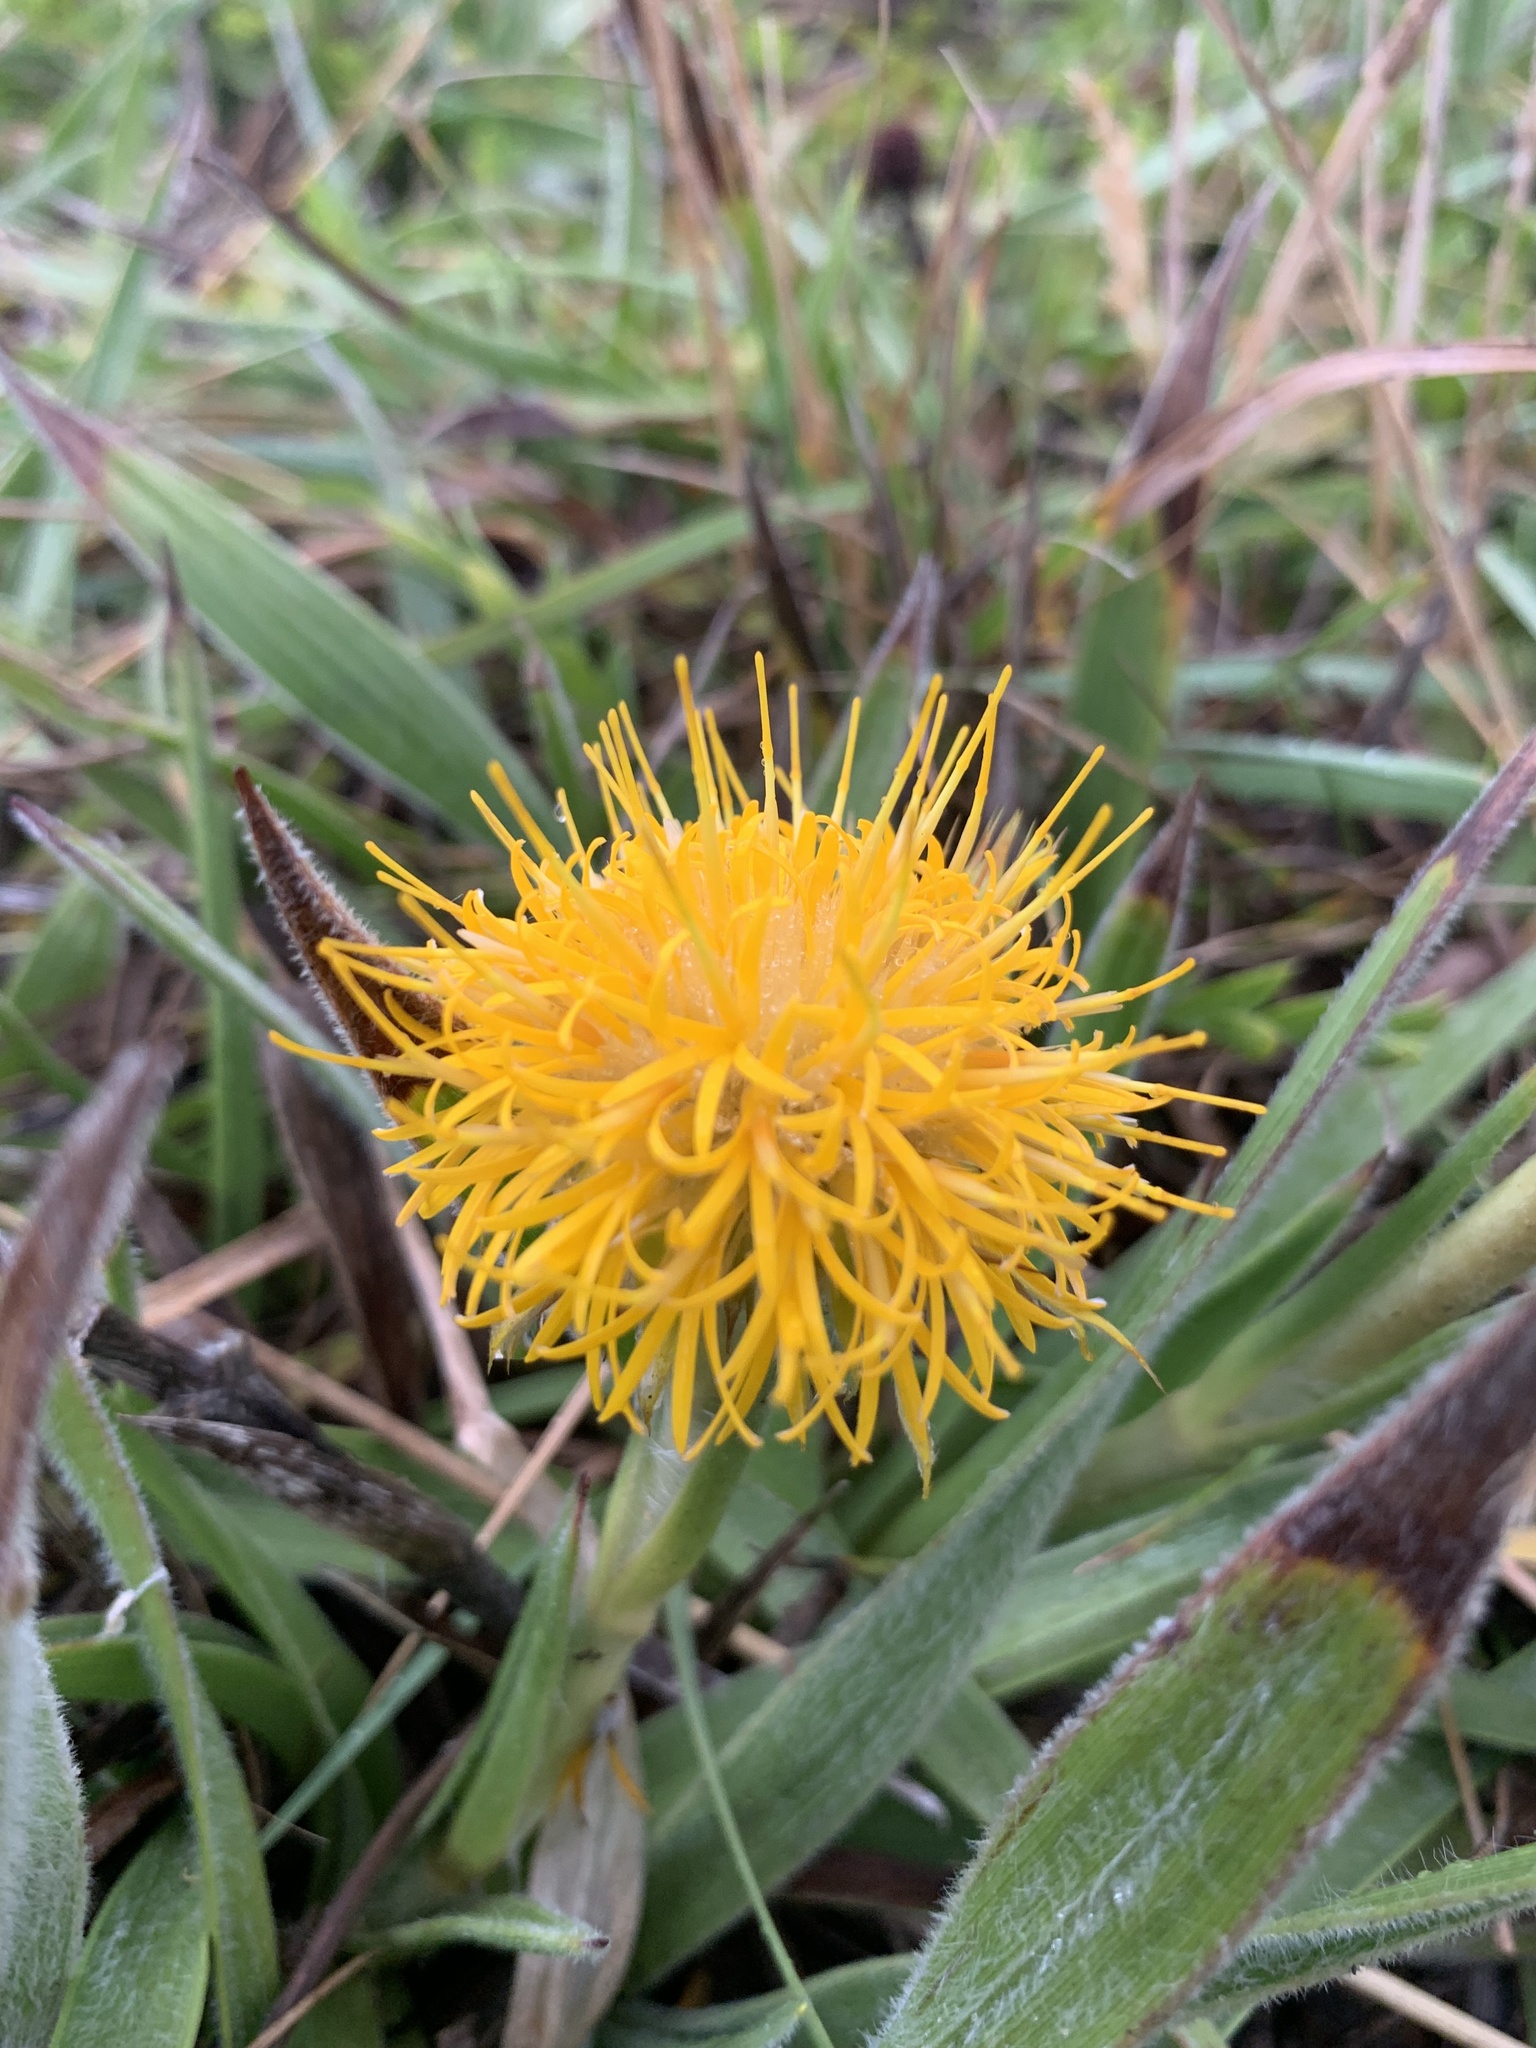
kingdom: Plantae
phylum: Tracheophyta
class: Magnoliopsida
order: Asterales
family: Asteraceae
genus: Schlechtendalia
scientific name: Schlechtendalia luzulifolia
